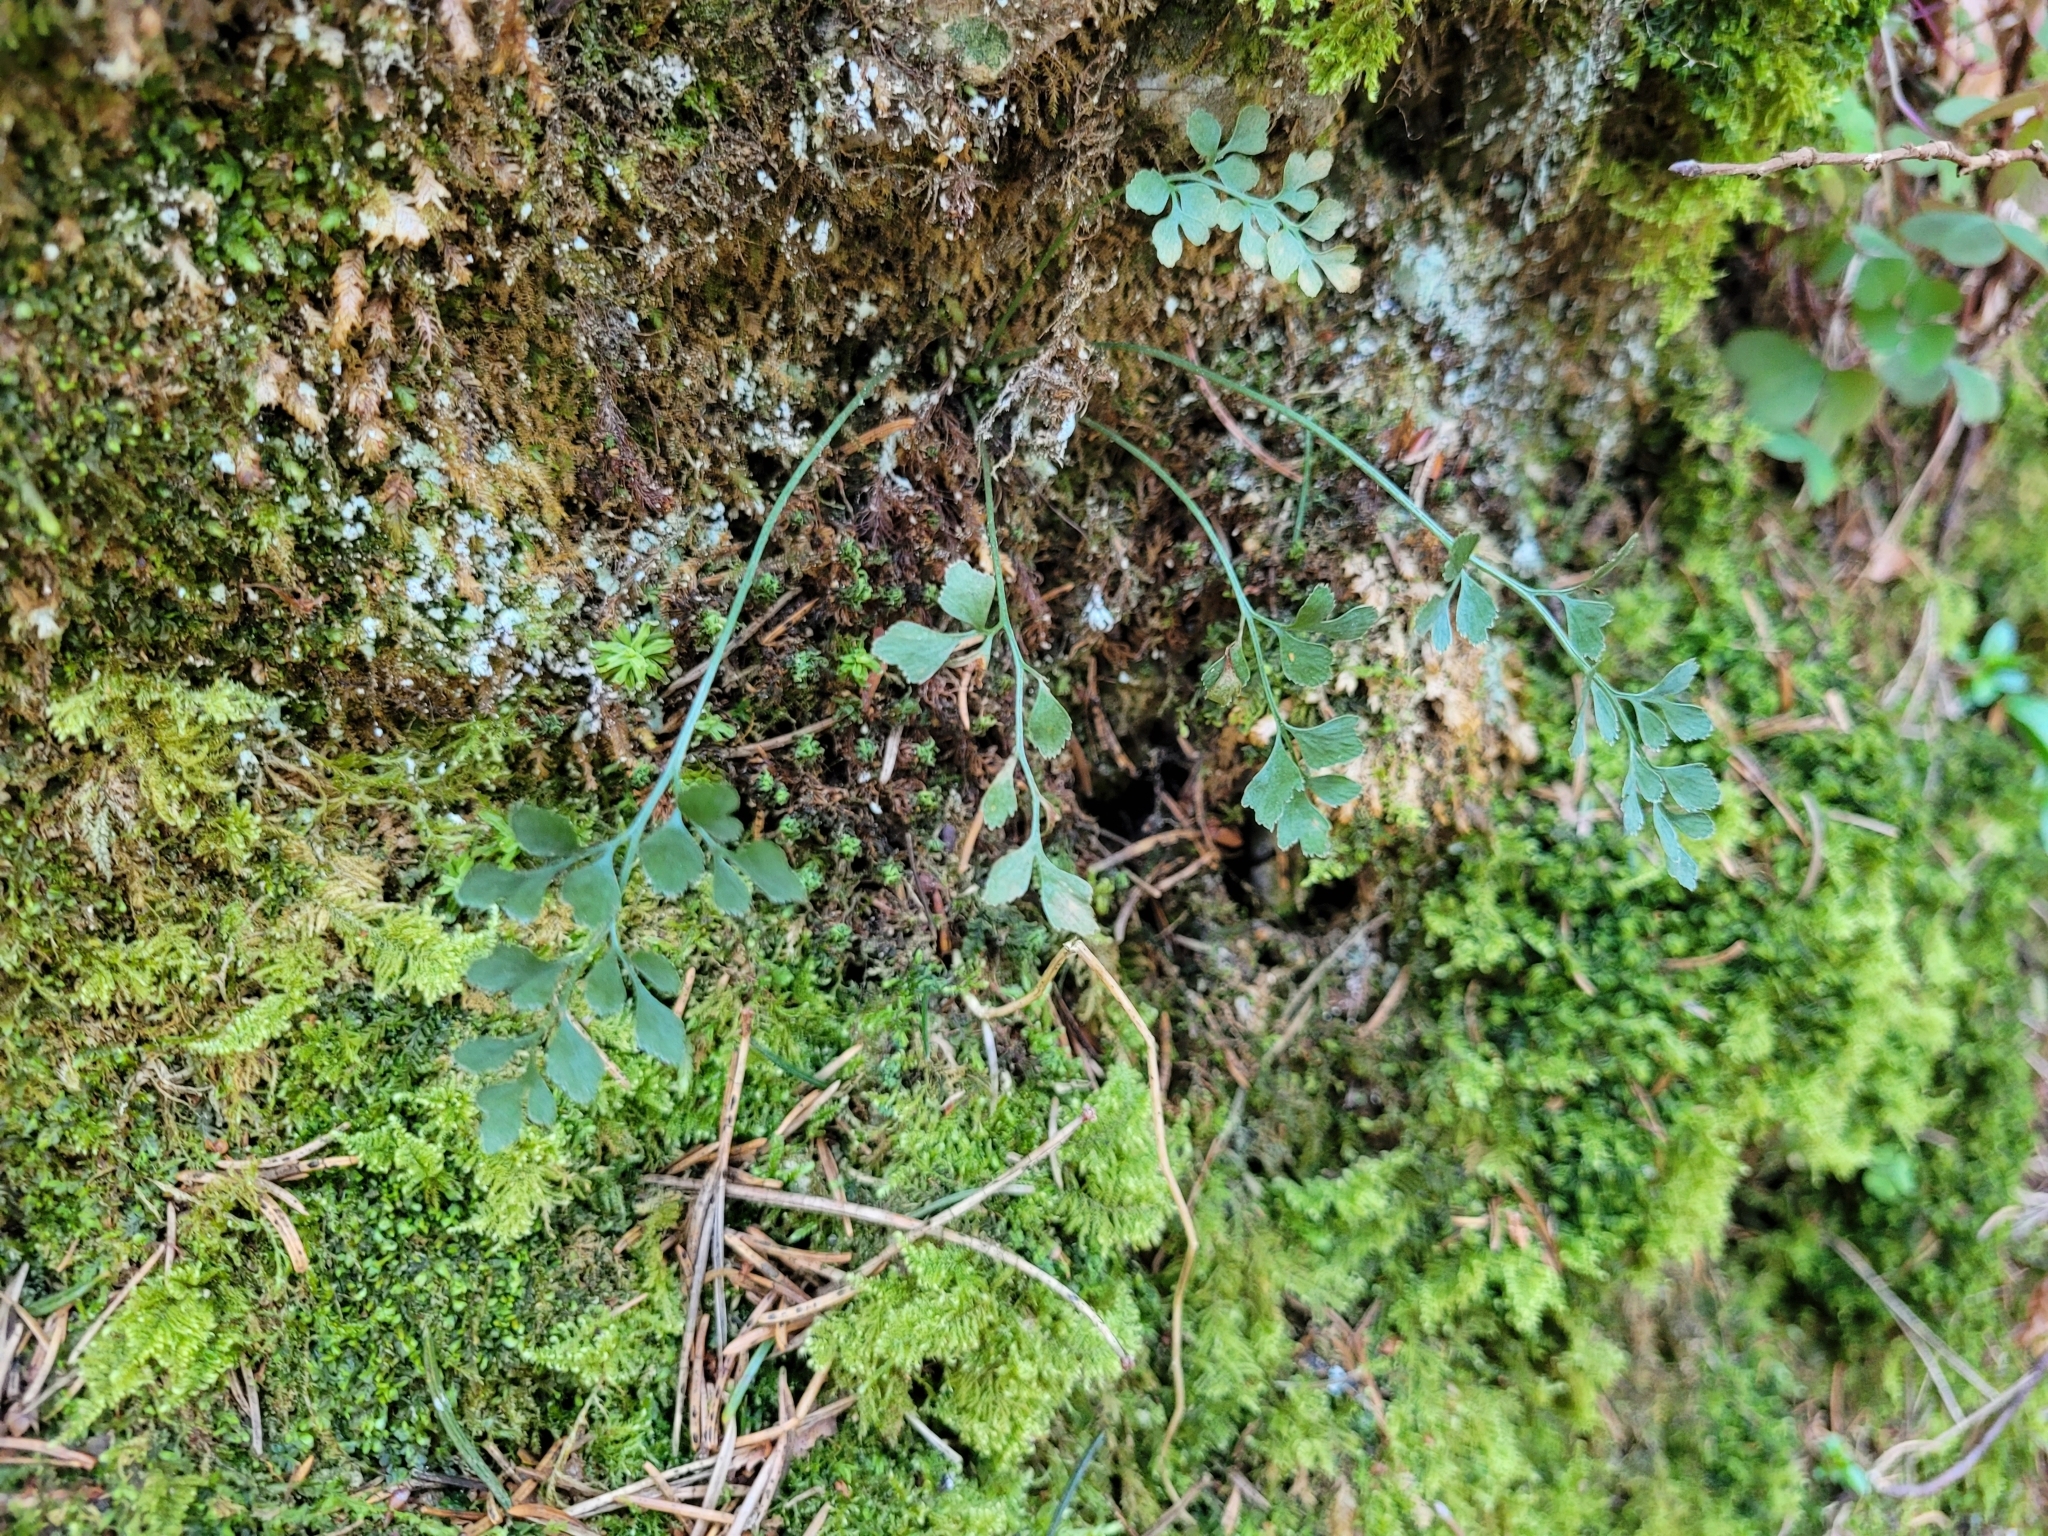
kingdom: Plantae
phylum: Tracheophyta
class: Polypodiopsida
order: Polypodiales
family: Aspleniaceae
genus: Asplenium
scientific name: Asplenium ruta-muraria
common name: Wall-rue
